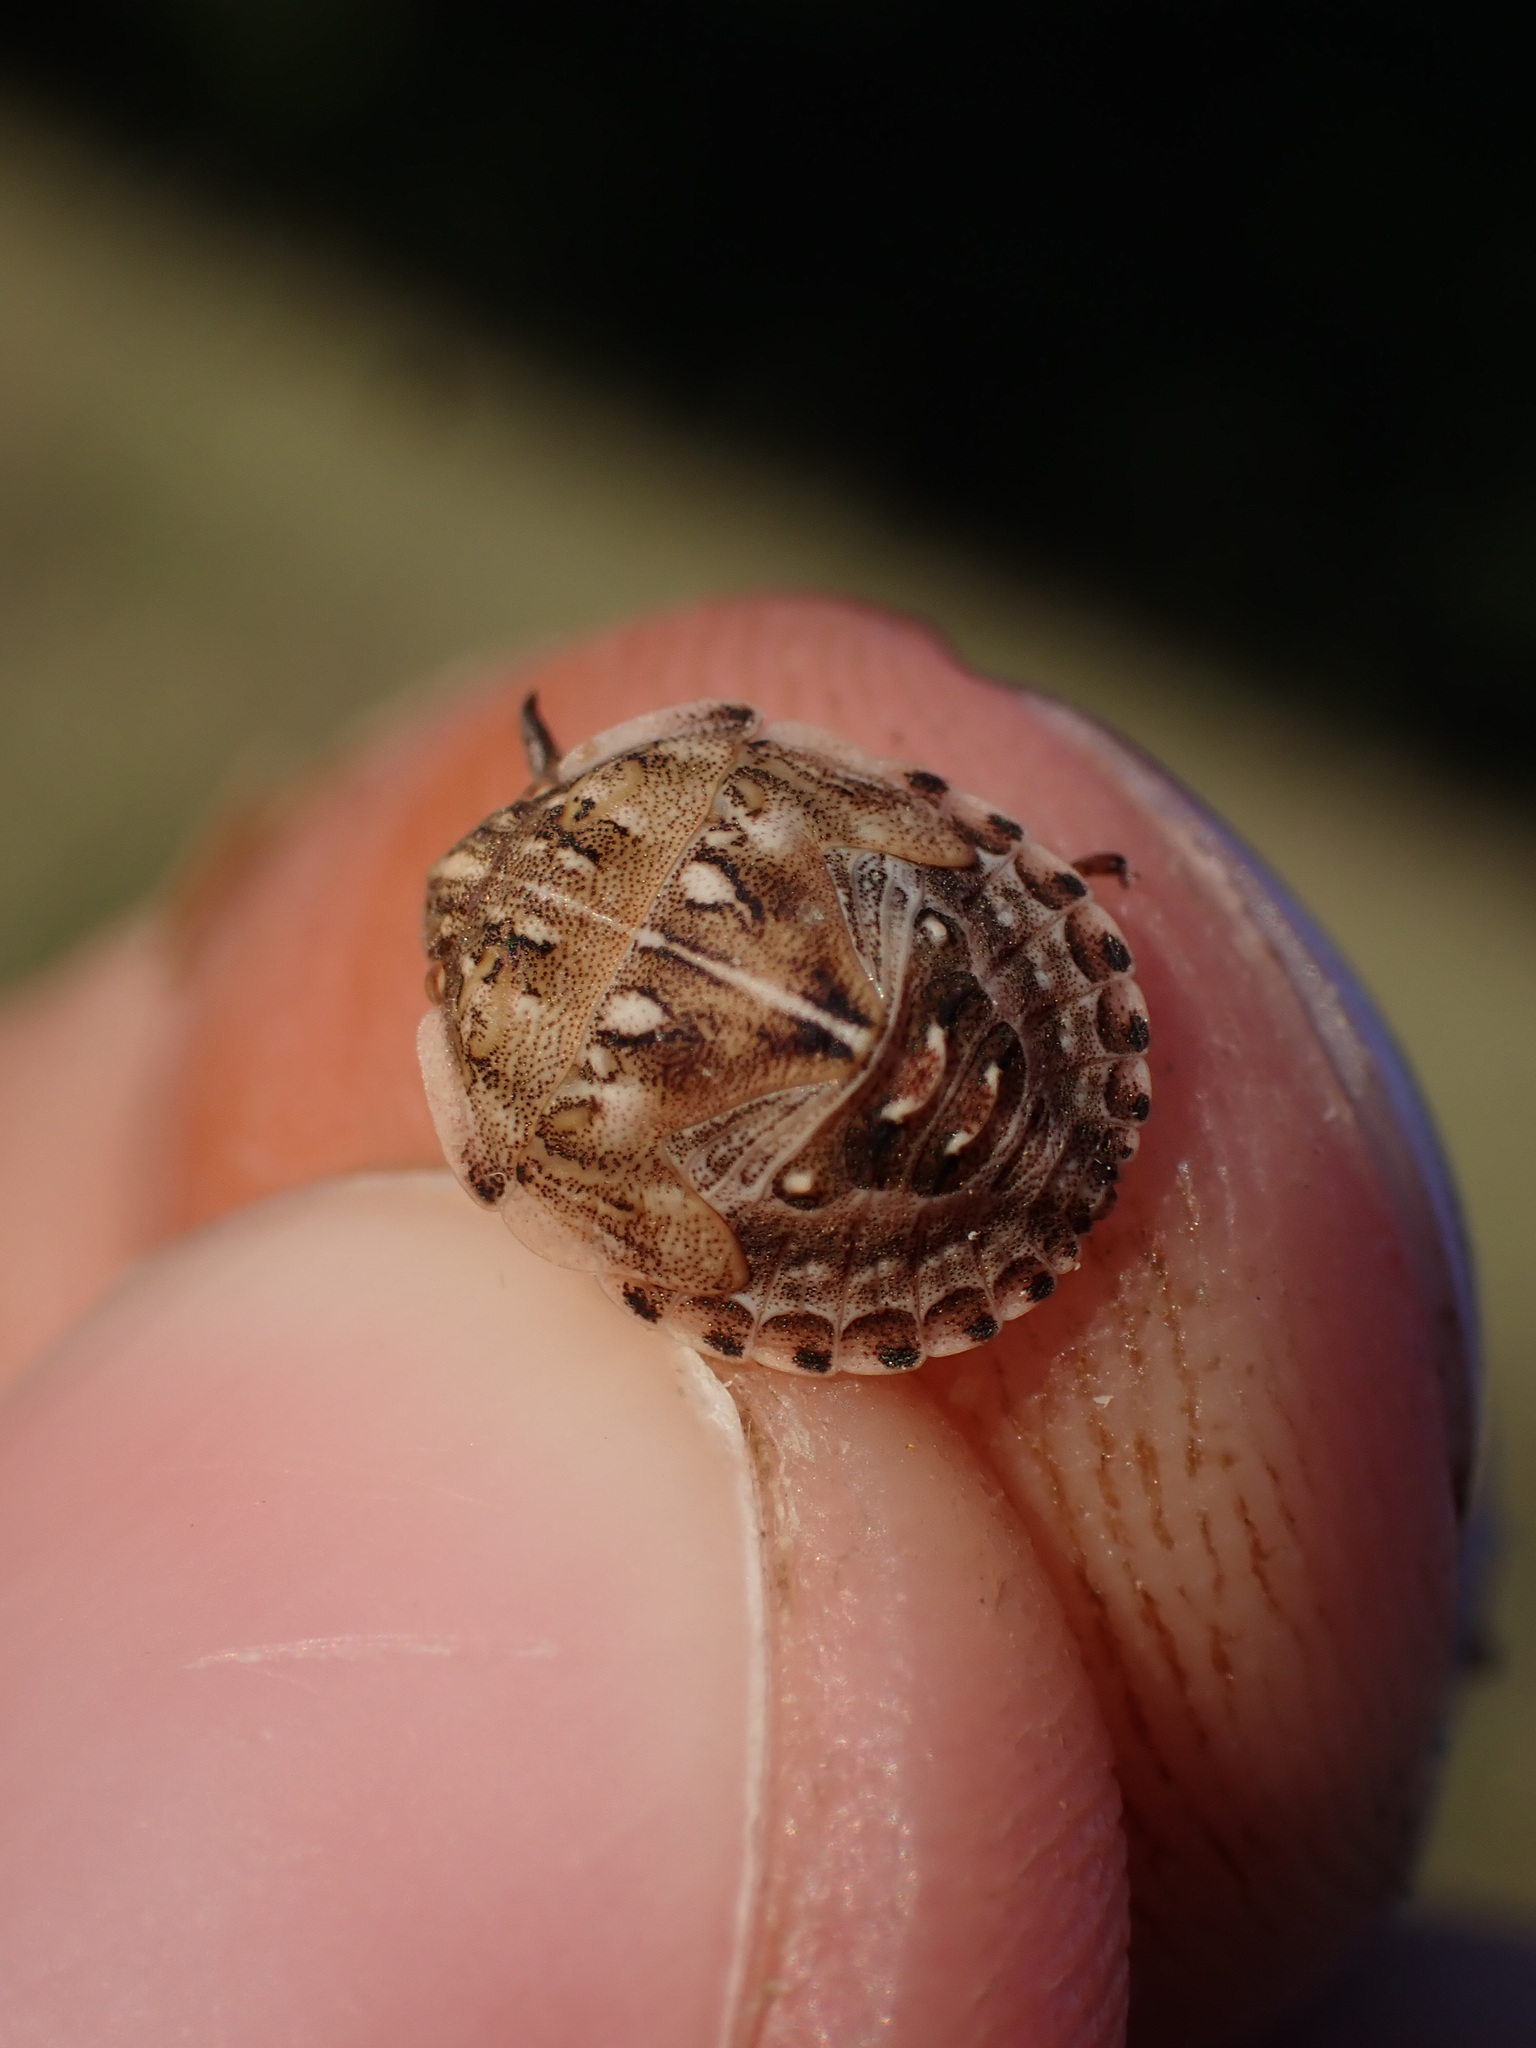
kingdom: Animalia
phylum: Arthropoda
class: Insecta
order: Hemiptera
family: Scutelleridae
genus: Odontotarsus
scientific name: Odontotarsus robustus
